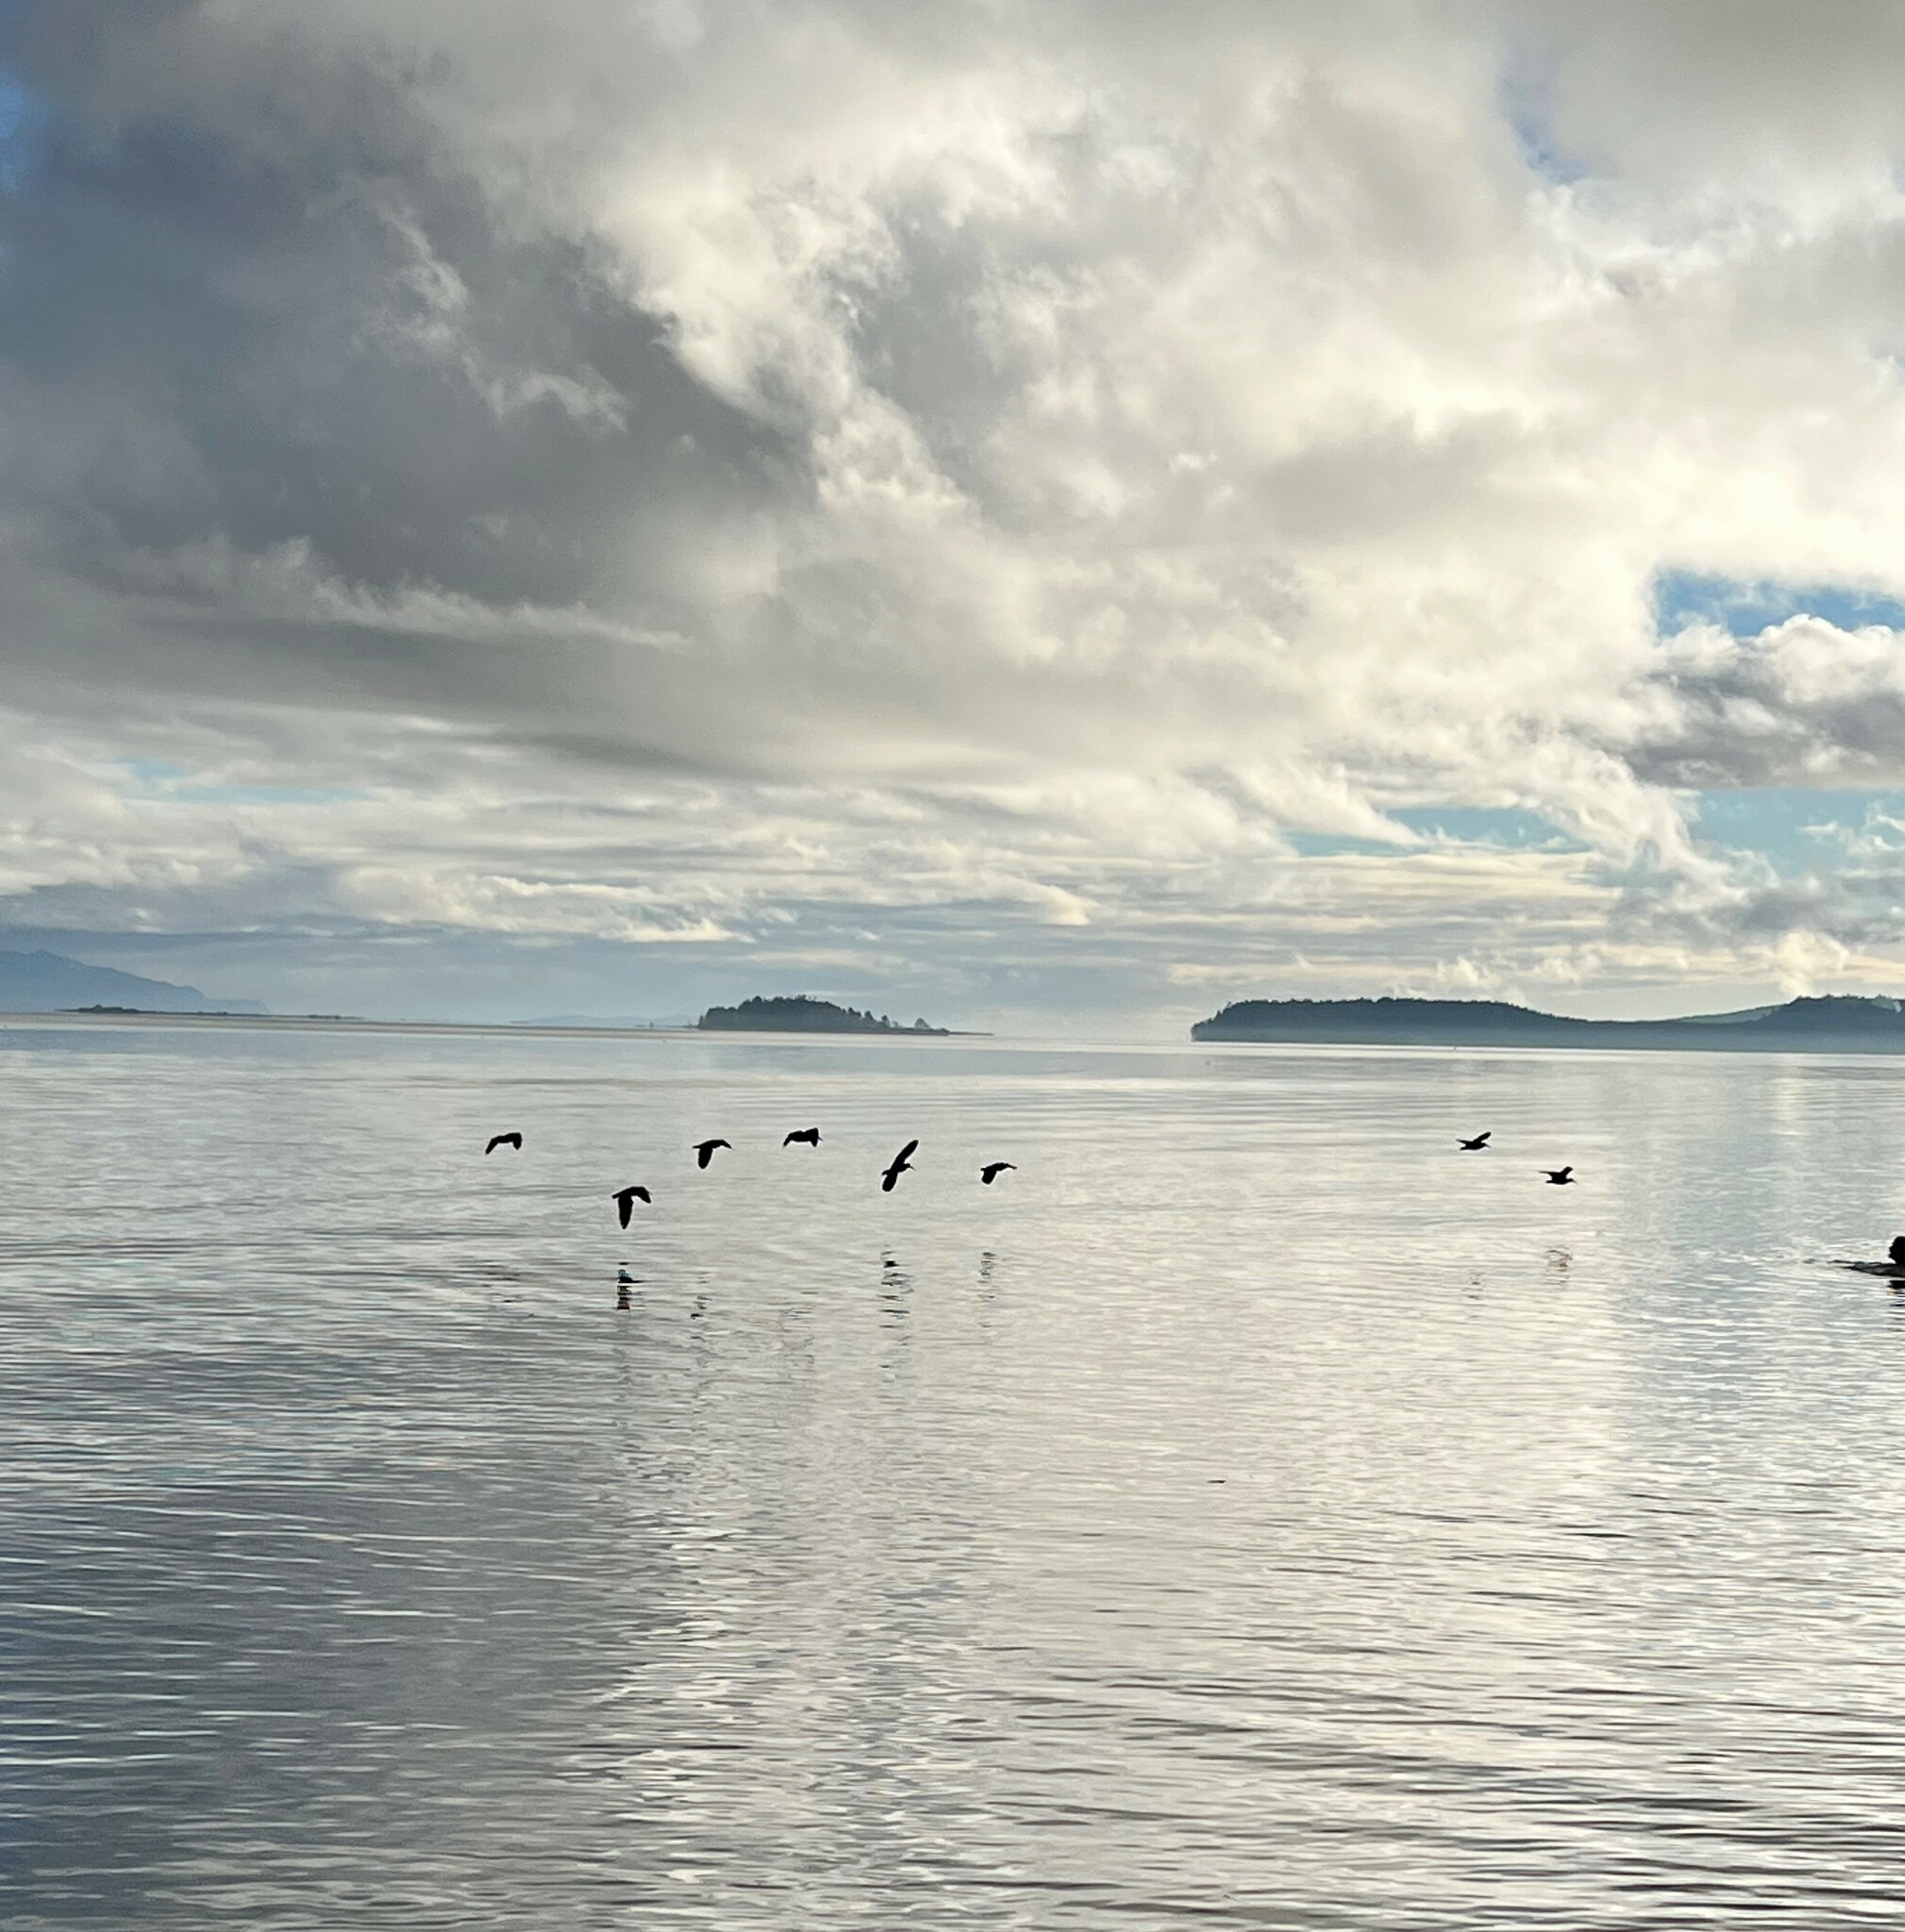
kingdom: Animalia
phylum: Chordata
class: Aves
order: Charadriiformes
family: Haematopodidae
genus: Haematopus
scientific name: Haematopus bachmani
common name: Black oystercatcher
